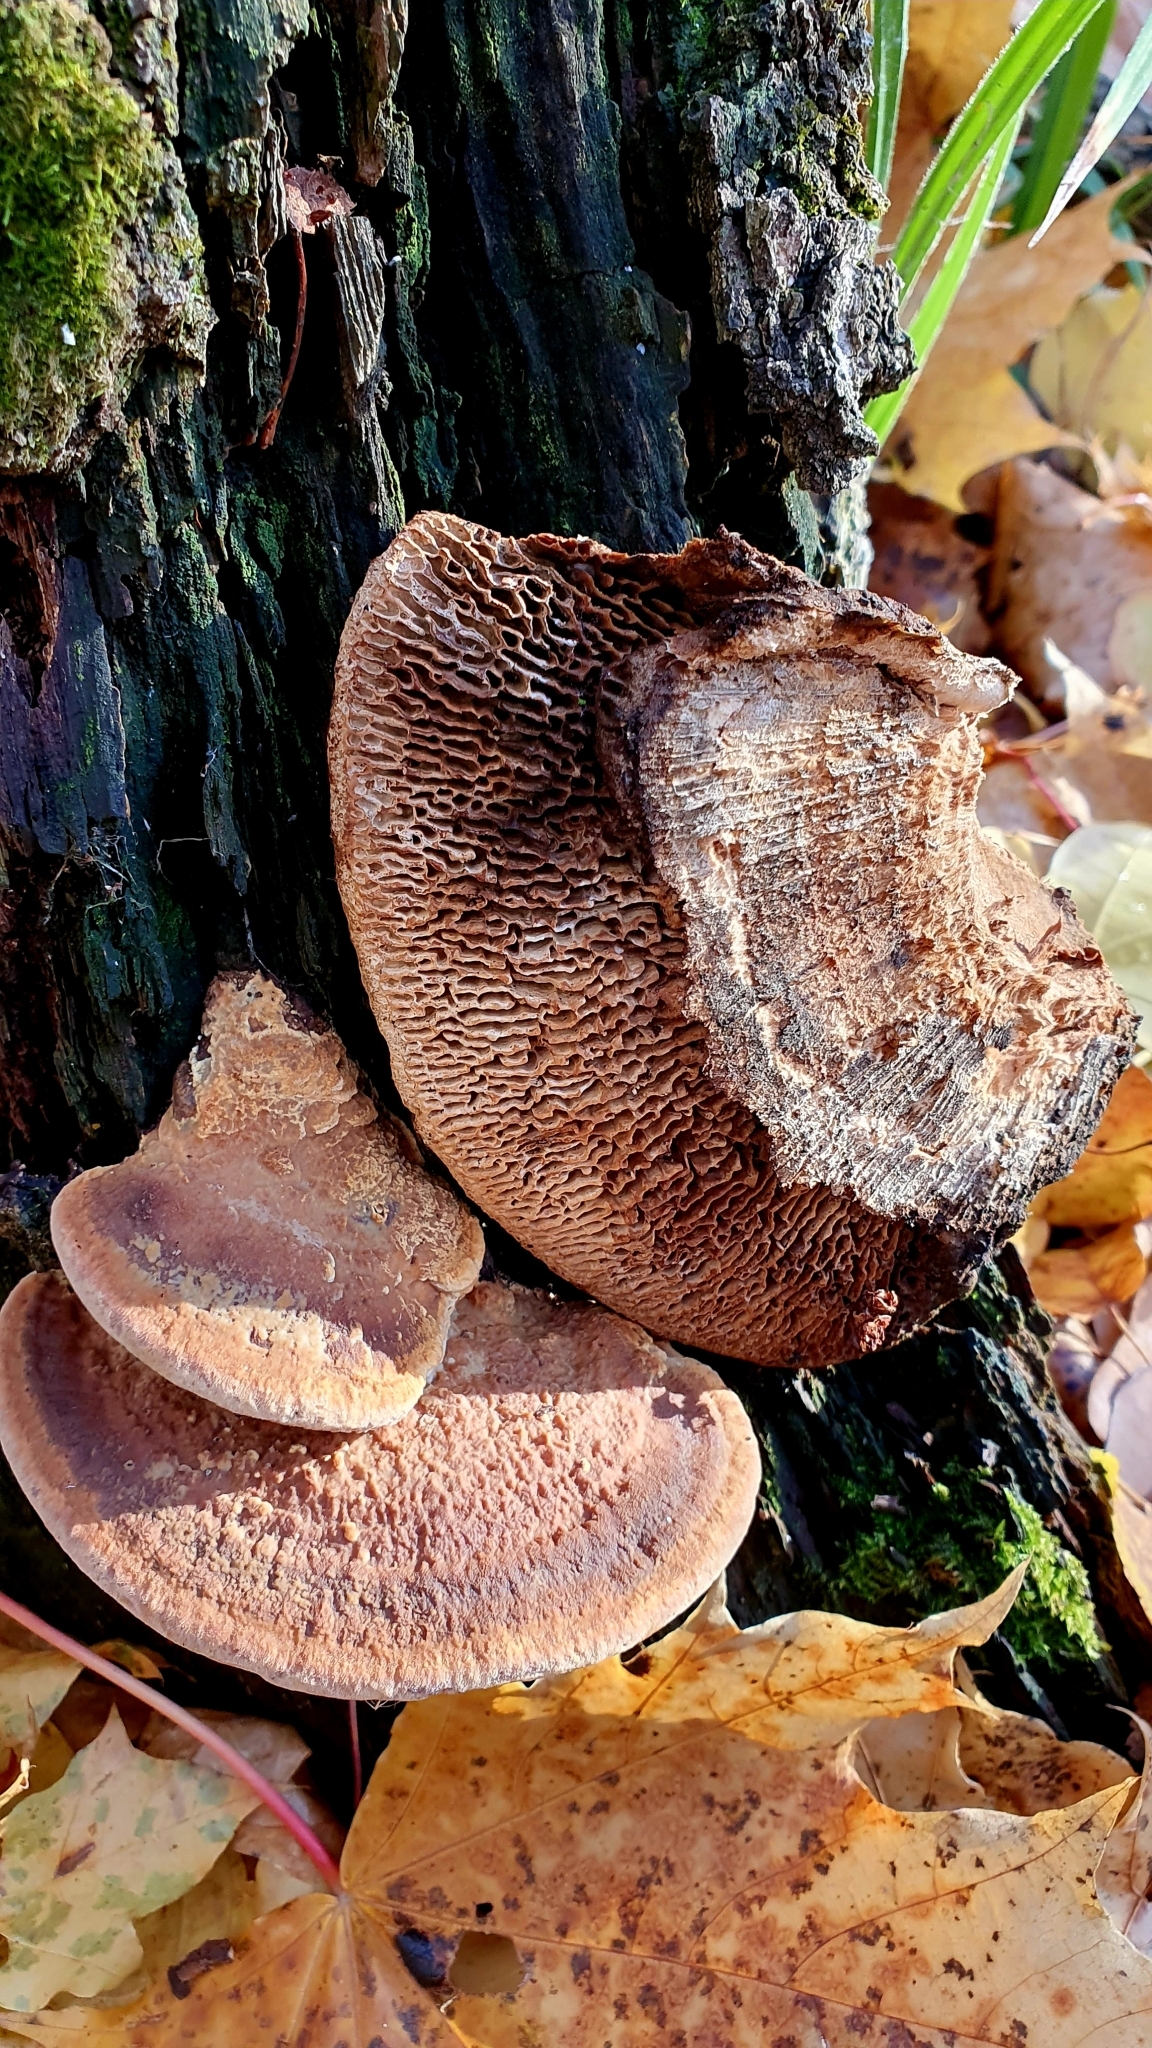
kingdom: Fungi
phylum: Basidiomycota
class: Agaricomycetes
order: Polyporales
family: Fomitopsidaceae
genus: Fomitopsis
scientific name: Fomitopsis
